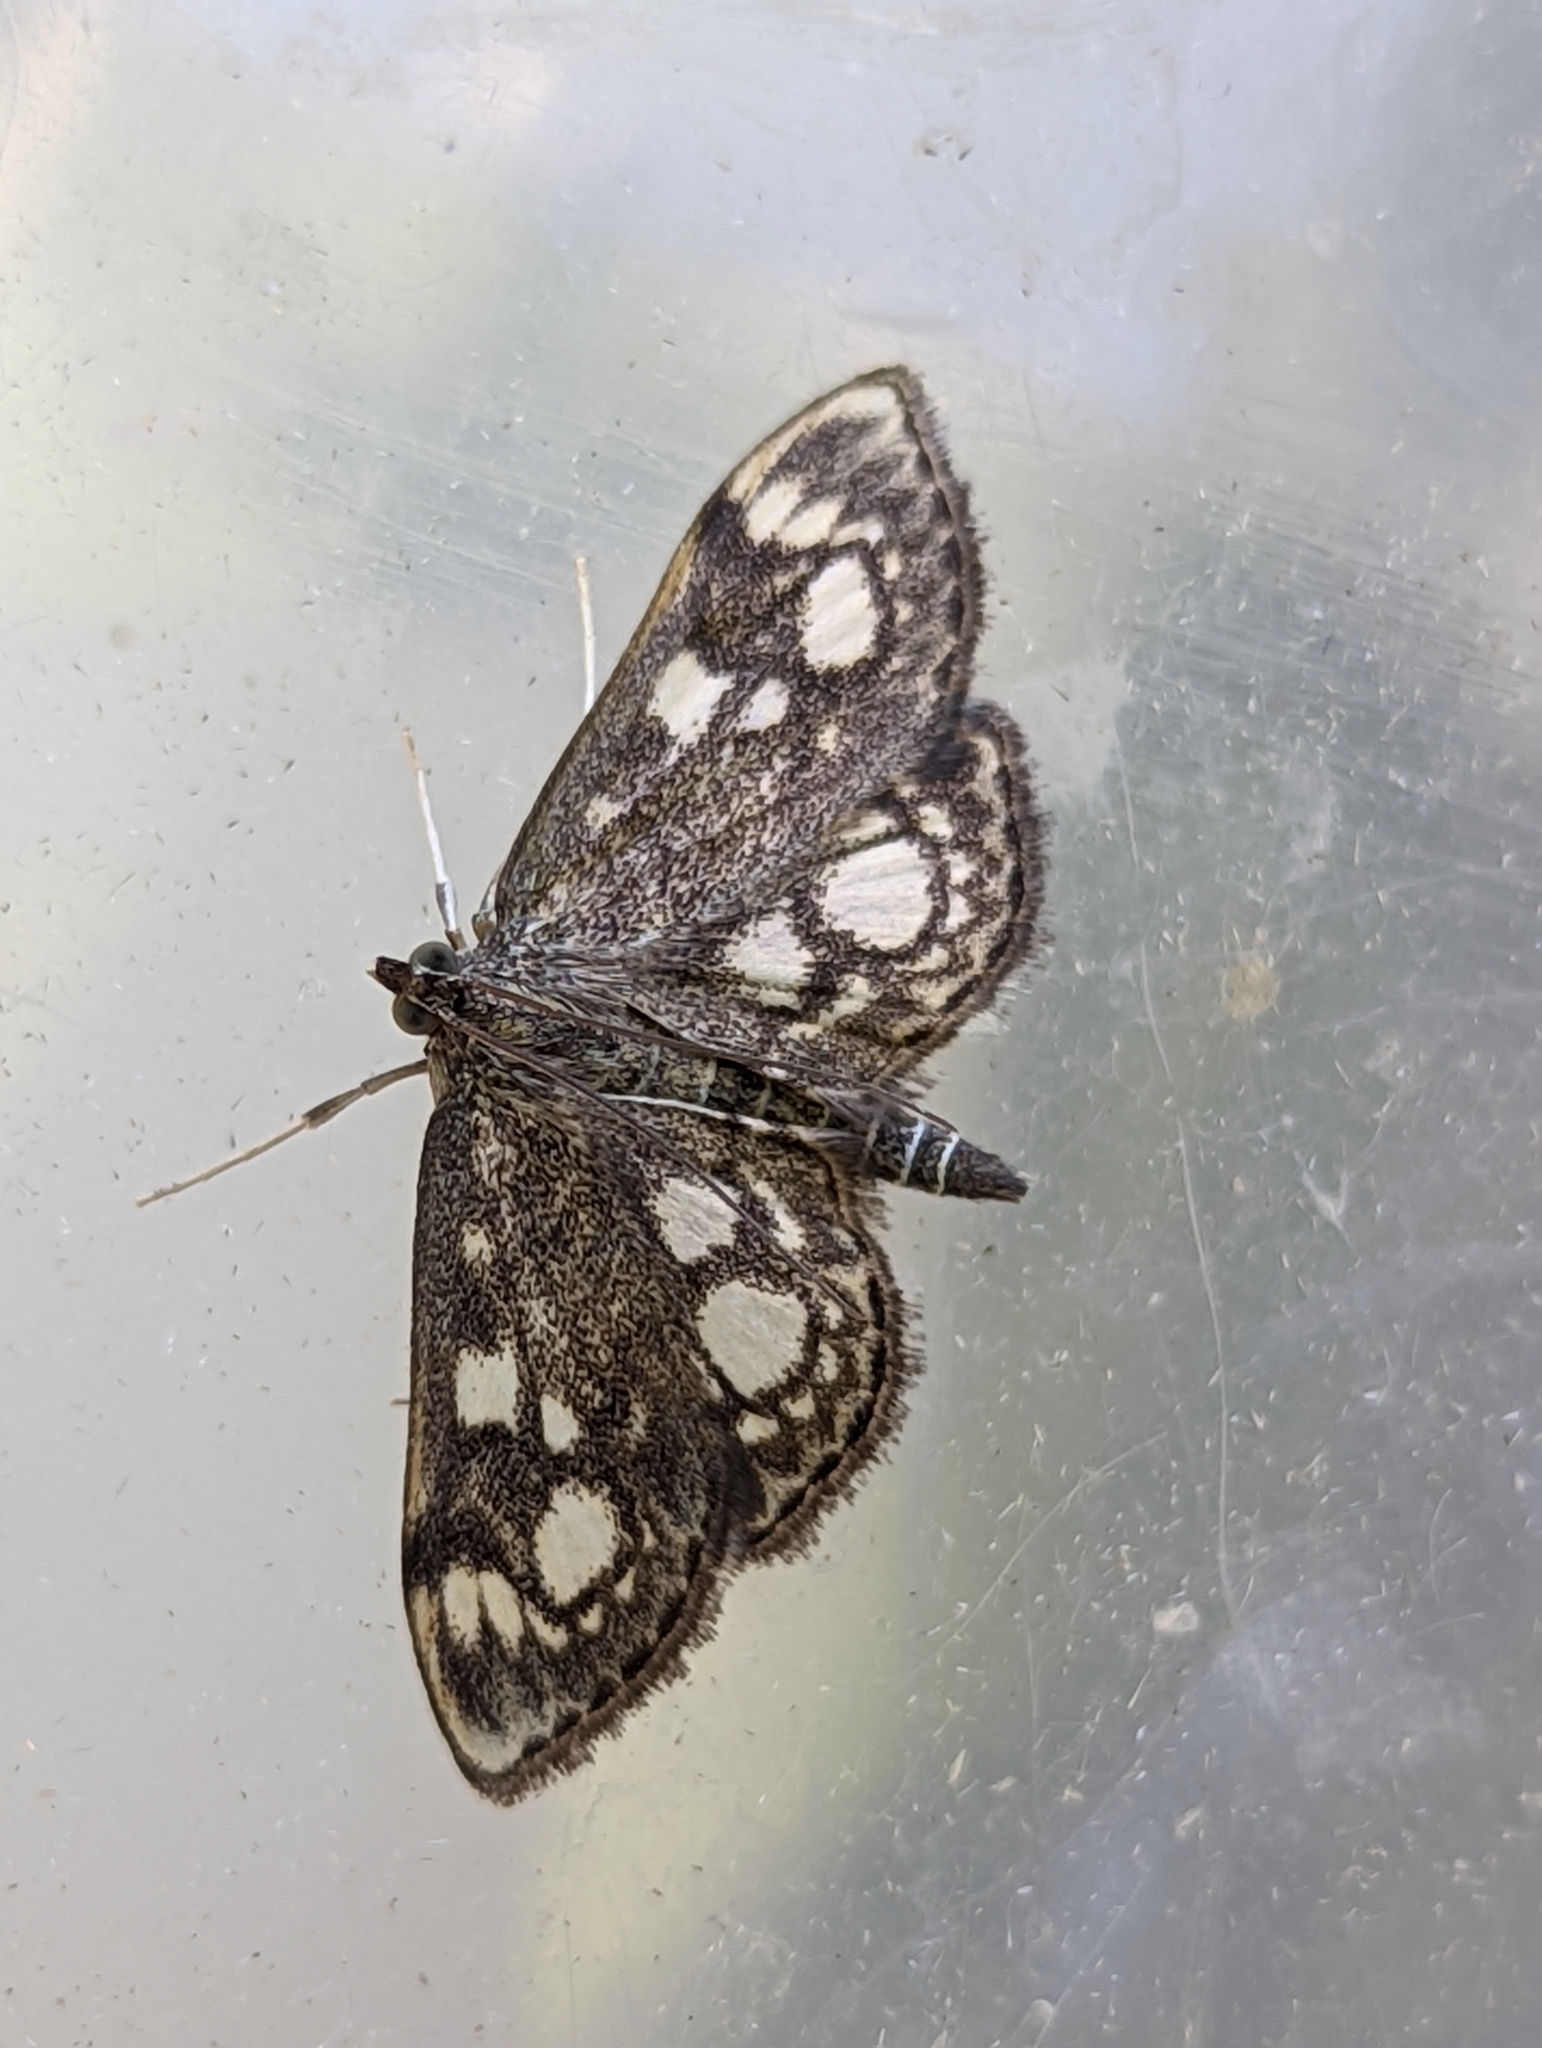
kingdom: Animalia
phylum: Arthropoda
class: Insecta
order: Lepidoptera
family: Crambidae
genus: Anania
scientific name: Anania coronata
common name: Elder pearl
